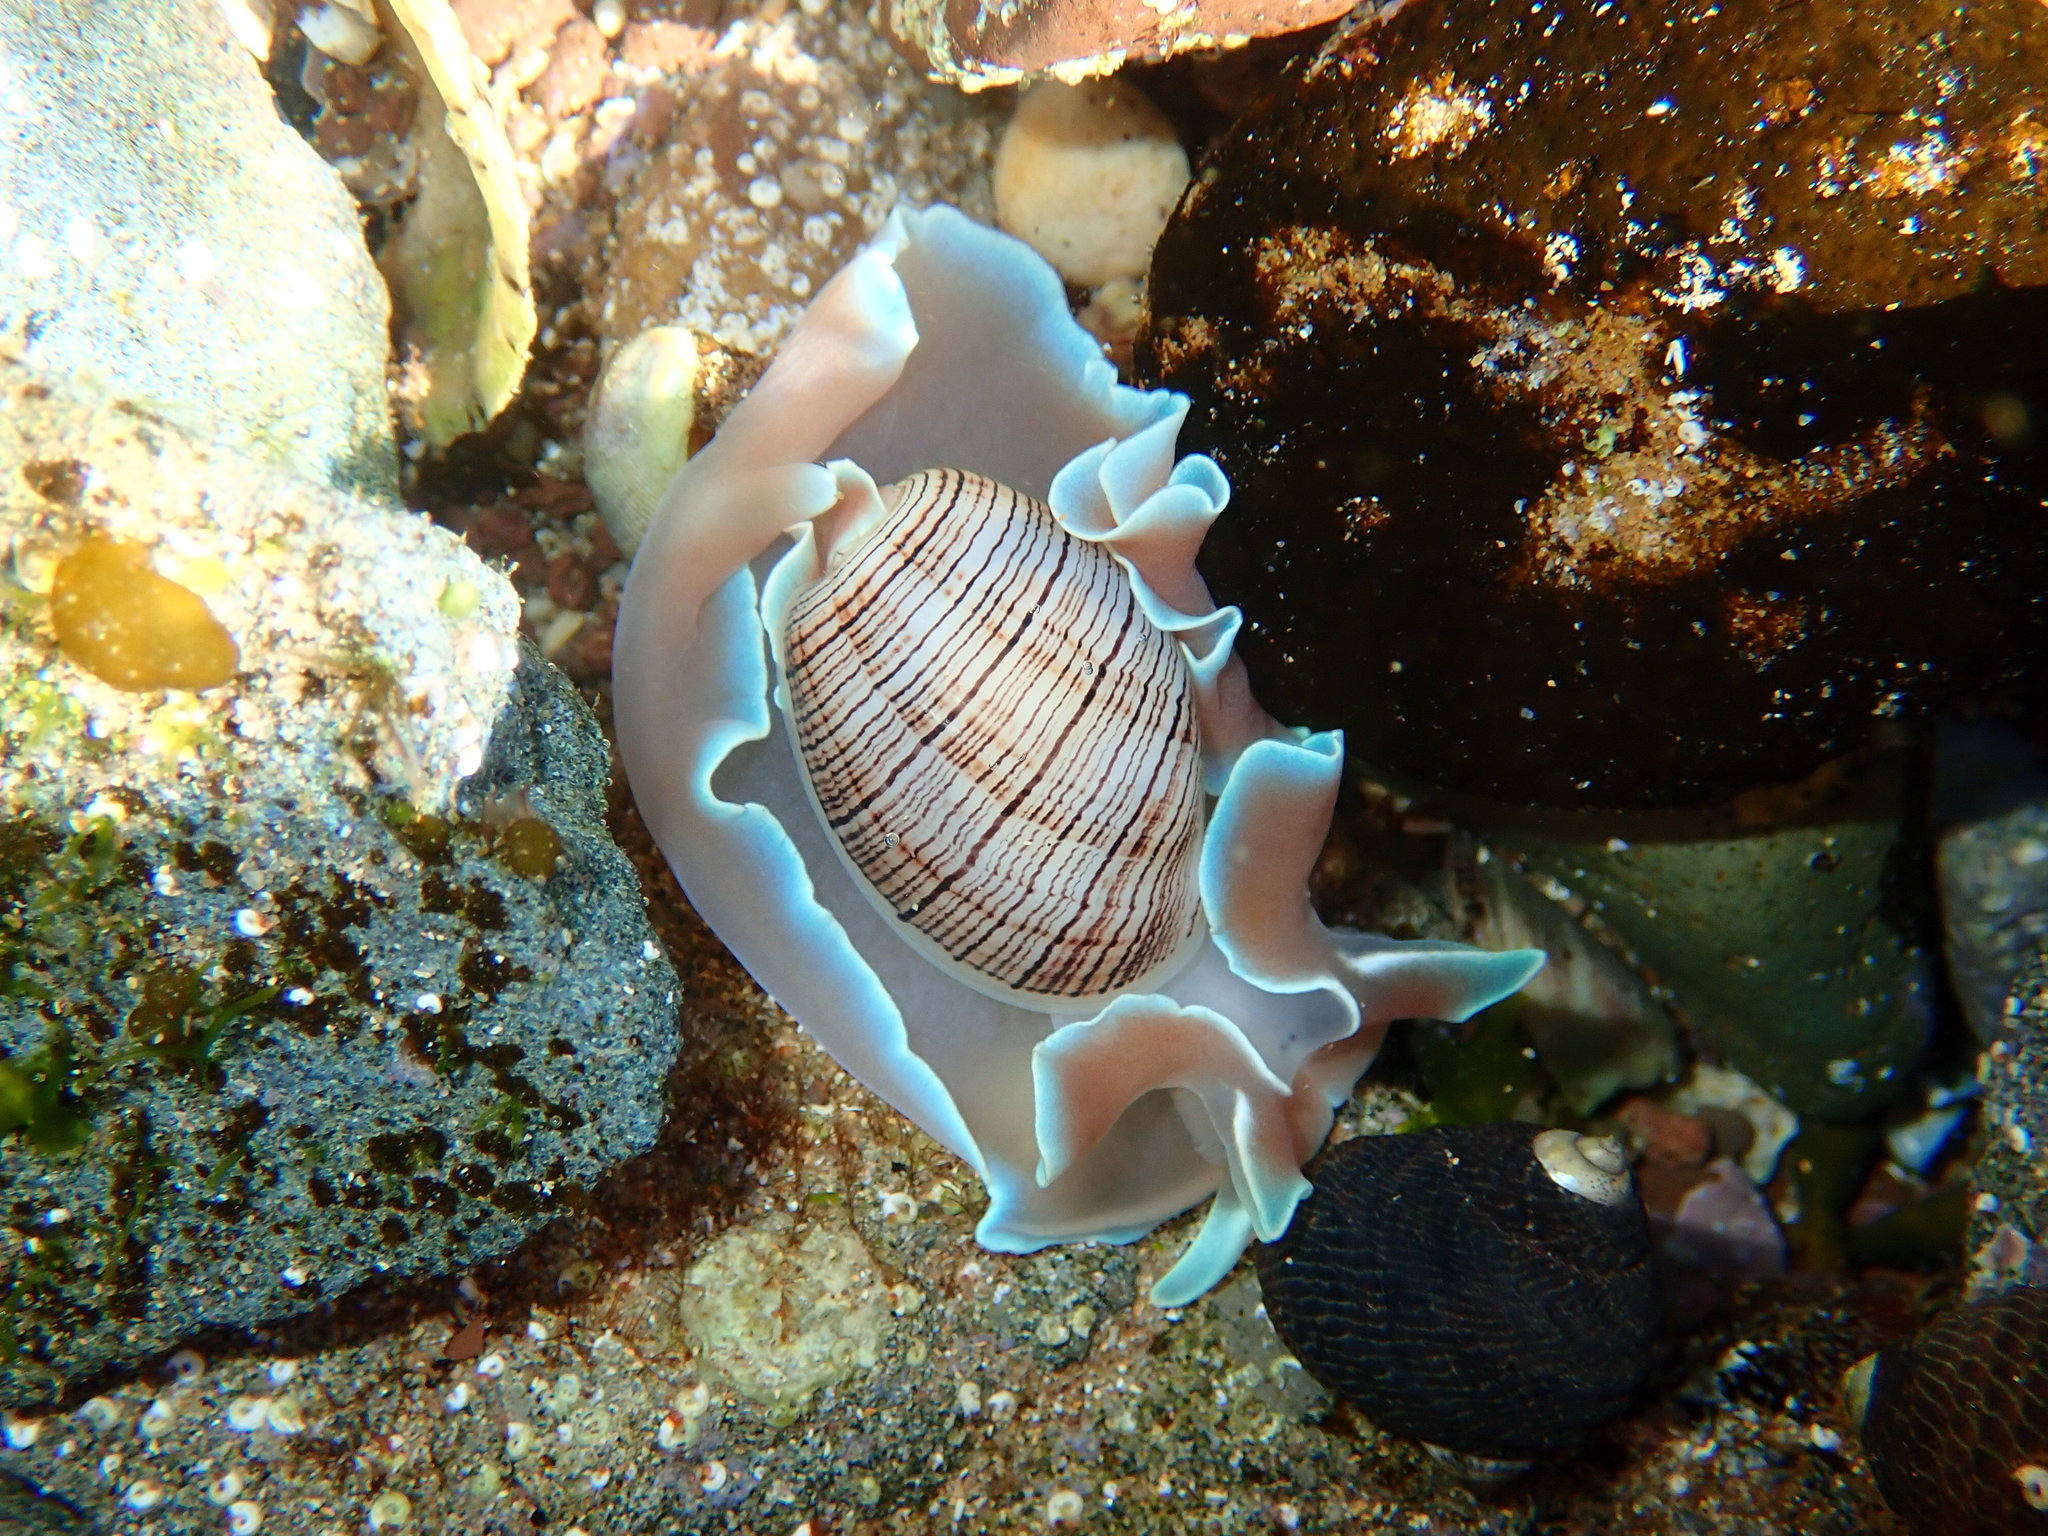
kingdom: Animalia
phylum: Mollusca
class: Gastropoda
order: Cephalaspidea
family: Aplustridae
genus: Hydatina
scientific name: Hydatina physis
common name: Brown-line paperbubble
